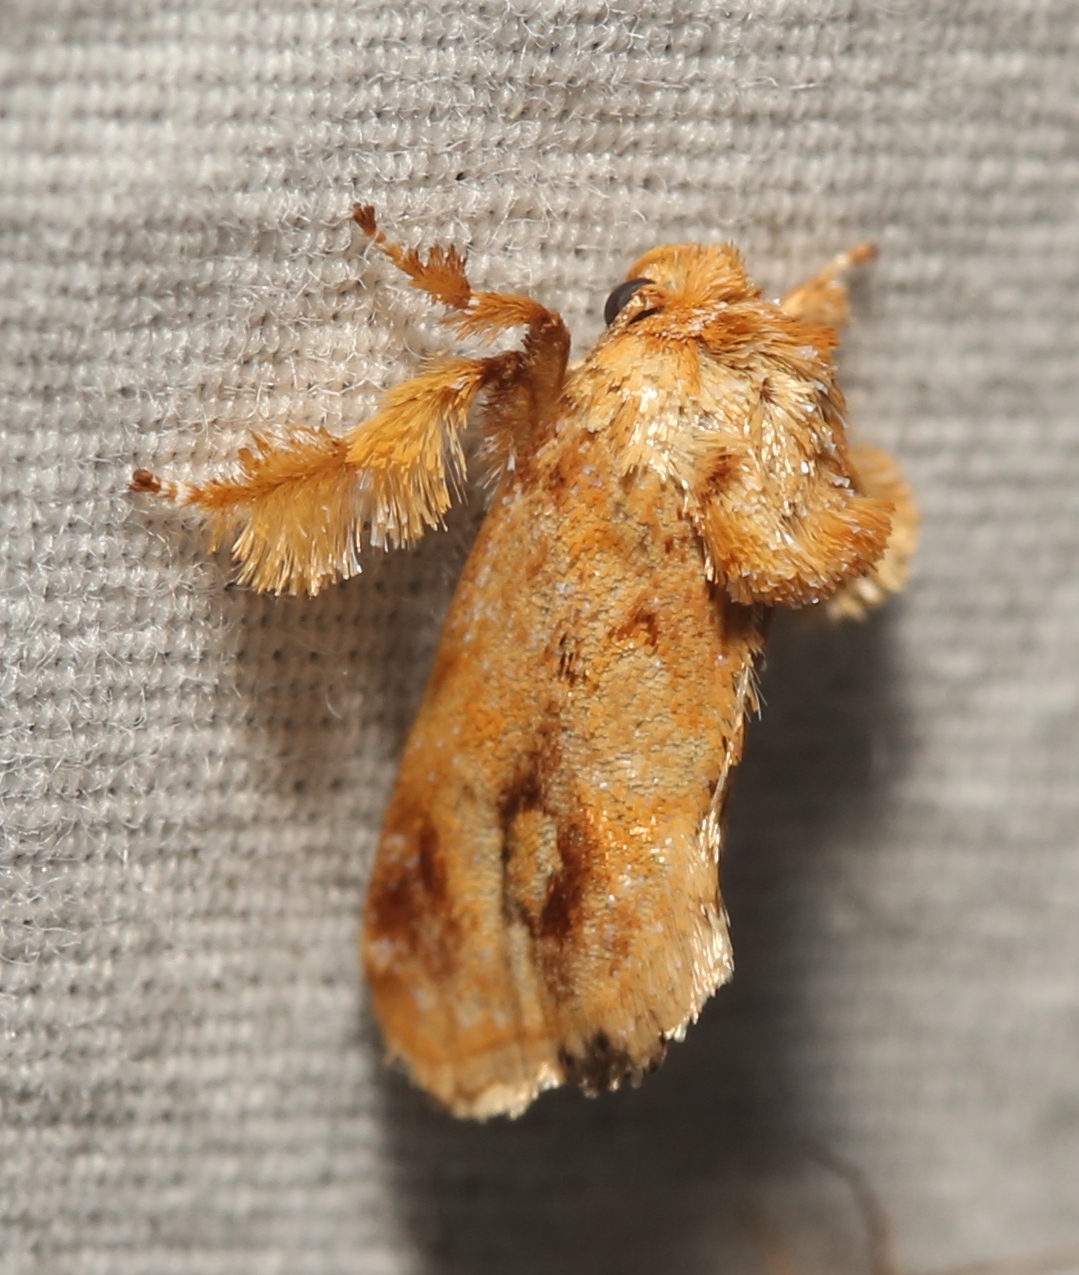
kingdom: Animalia
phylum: Arthropoda
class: Insecta
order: Lepidoptera
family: Limacodidae
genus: Isochaetes
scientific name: Isochaetes beutenmuelleri
